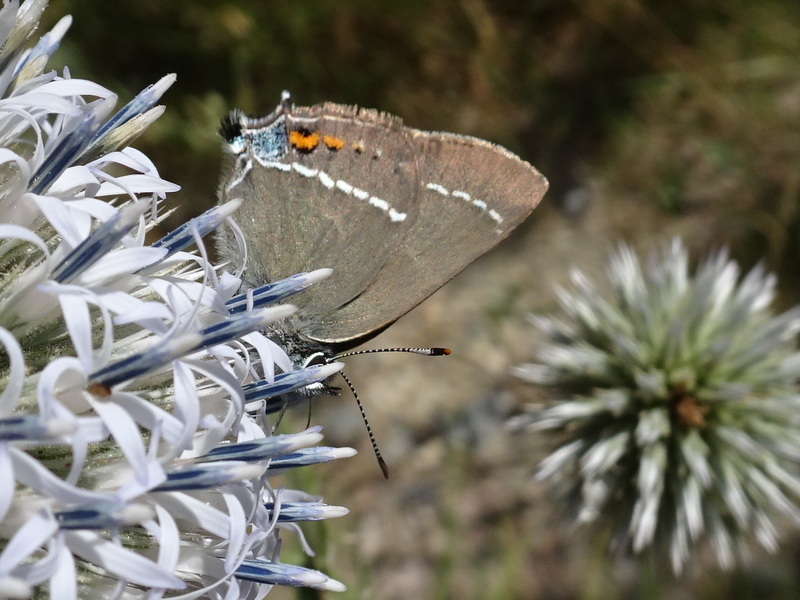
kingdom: Animalia
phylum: Arthropoda
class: Insecta
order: Lepidoptera
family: Lycaenidae
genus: Tuttiola
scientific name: Tuttiola spini
